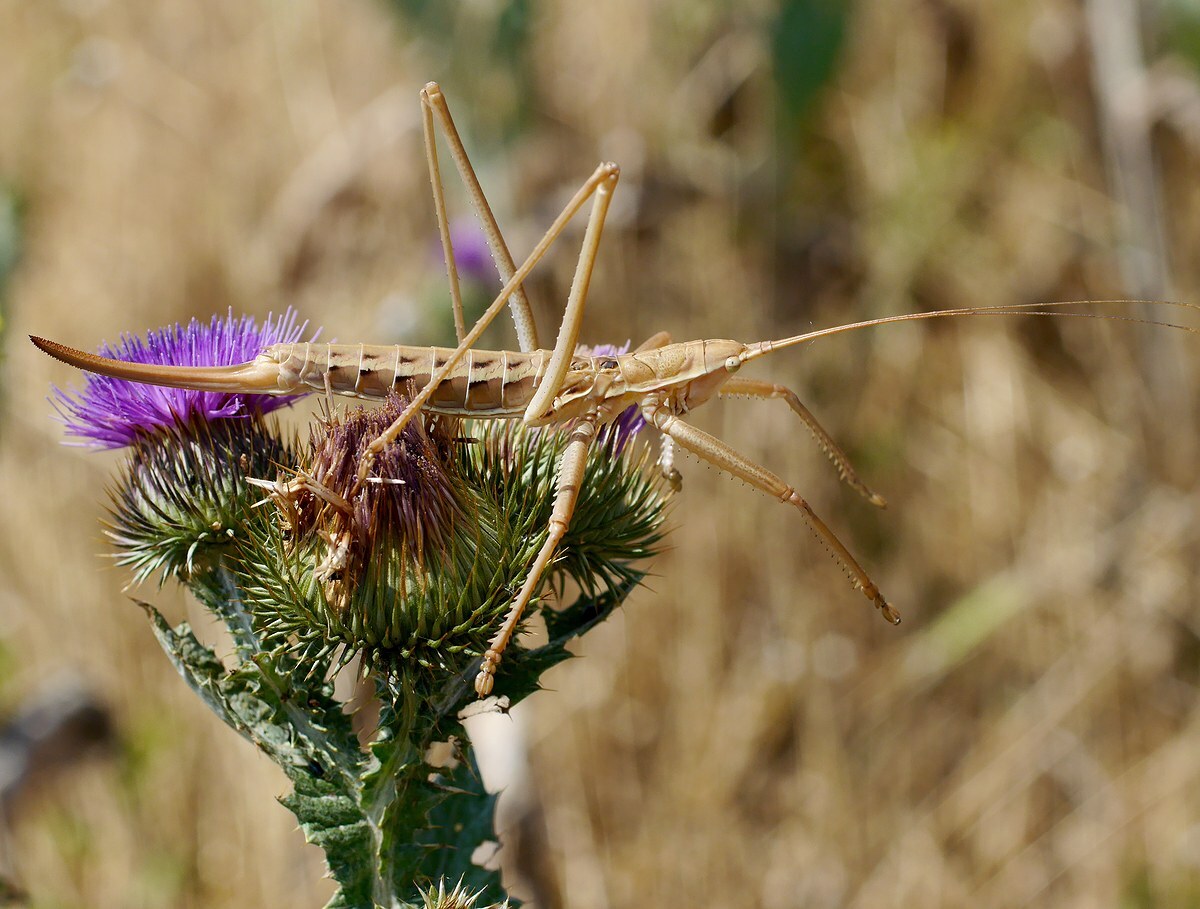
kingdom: Animalia
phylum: Arthropoda
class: Insecta
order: Orthoptera
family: Tettigoniidae
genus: Saga
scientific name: Saga pedo
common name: Common predatory bush-cricket
